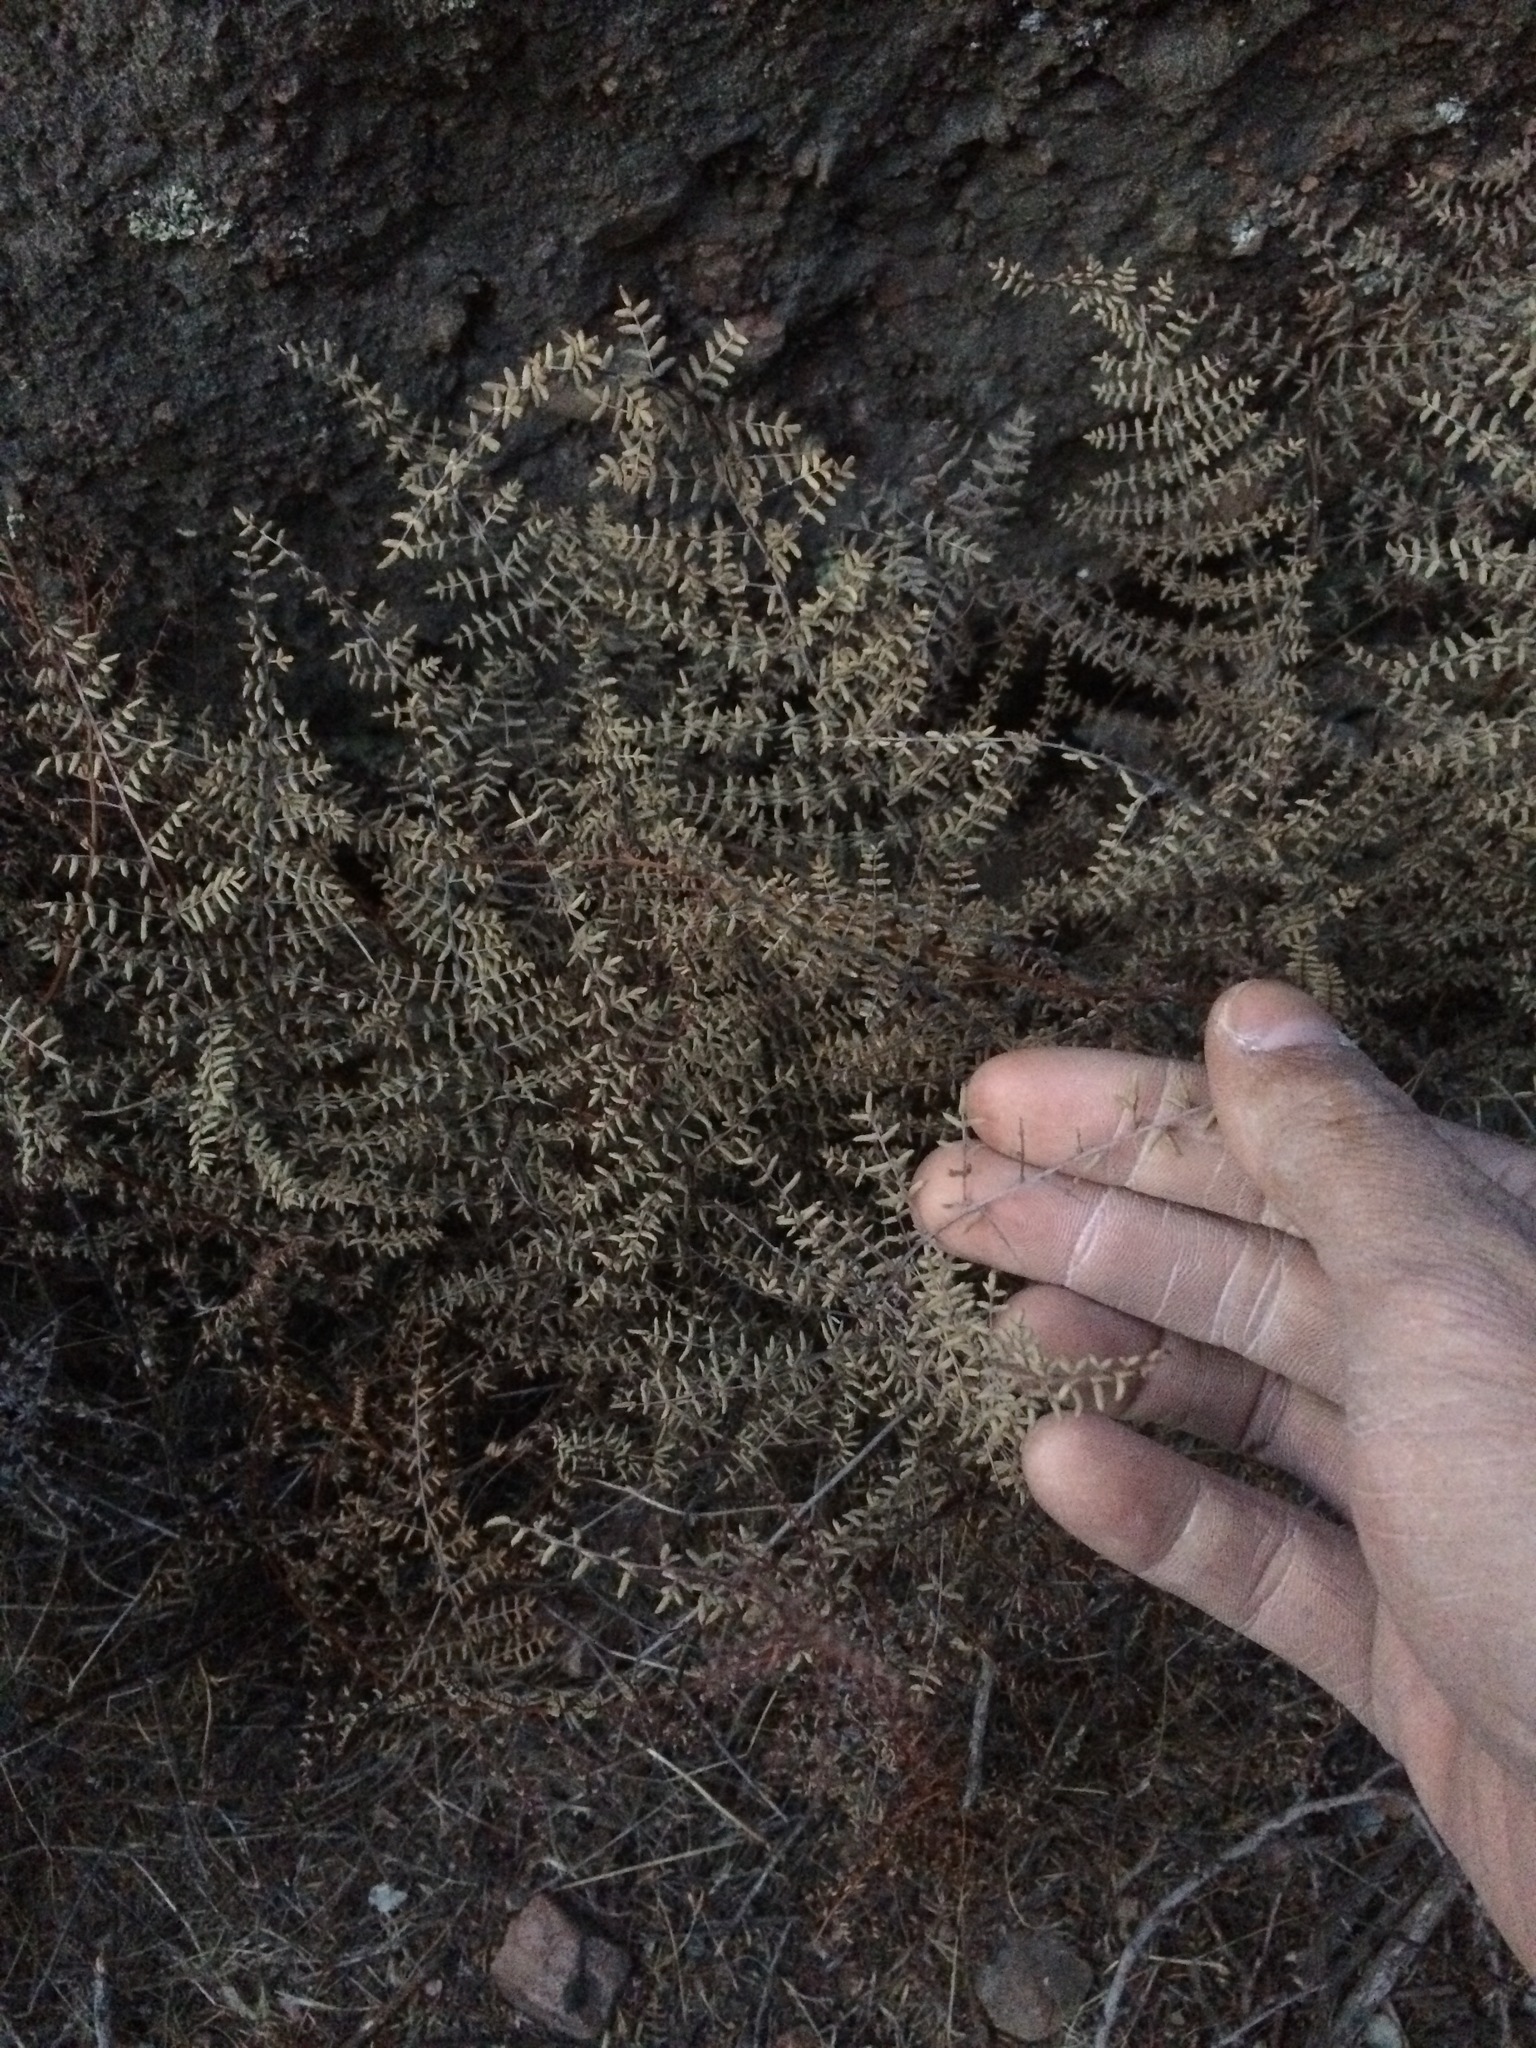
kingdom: Plantae
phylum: Tracheophyta
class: Polypodiopsida
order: Polypodiales
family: Pteridaceae
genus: Pellaea
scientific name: Pellaea mucronata
